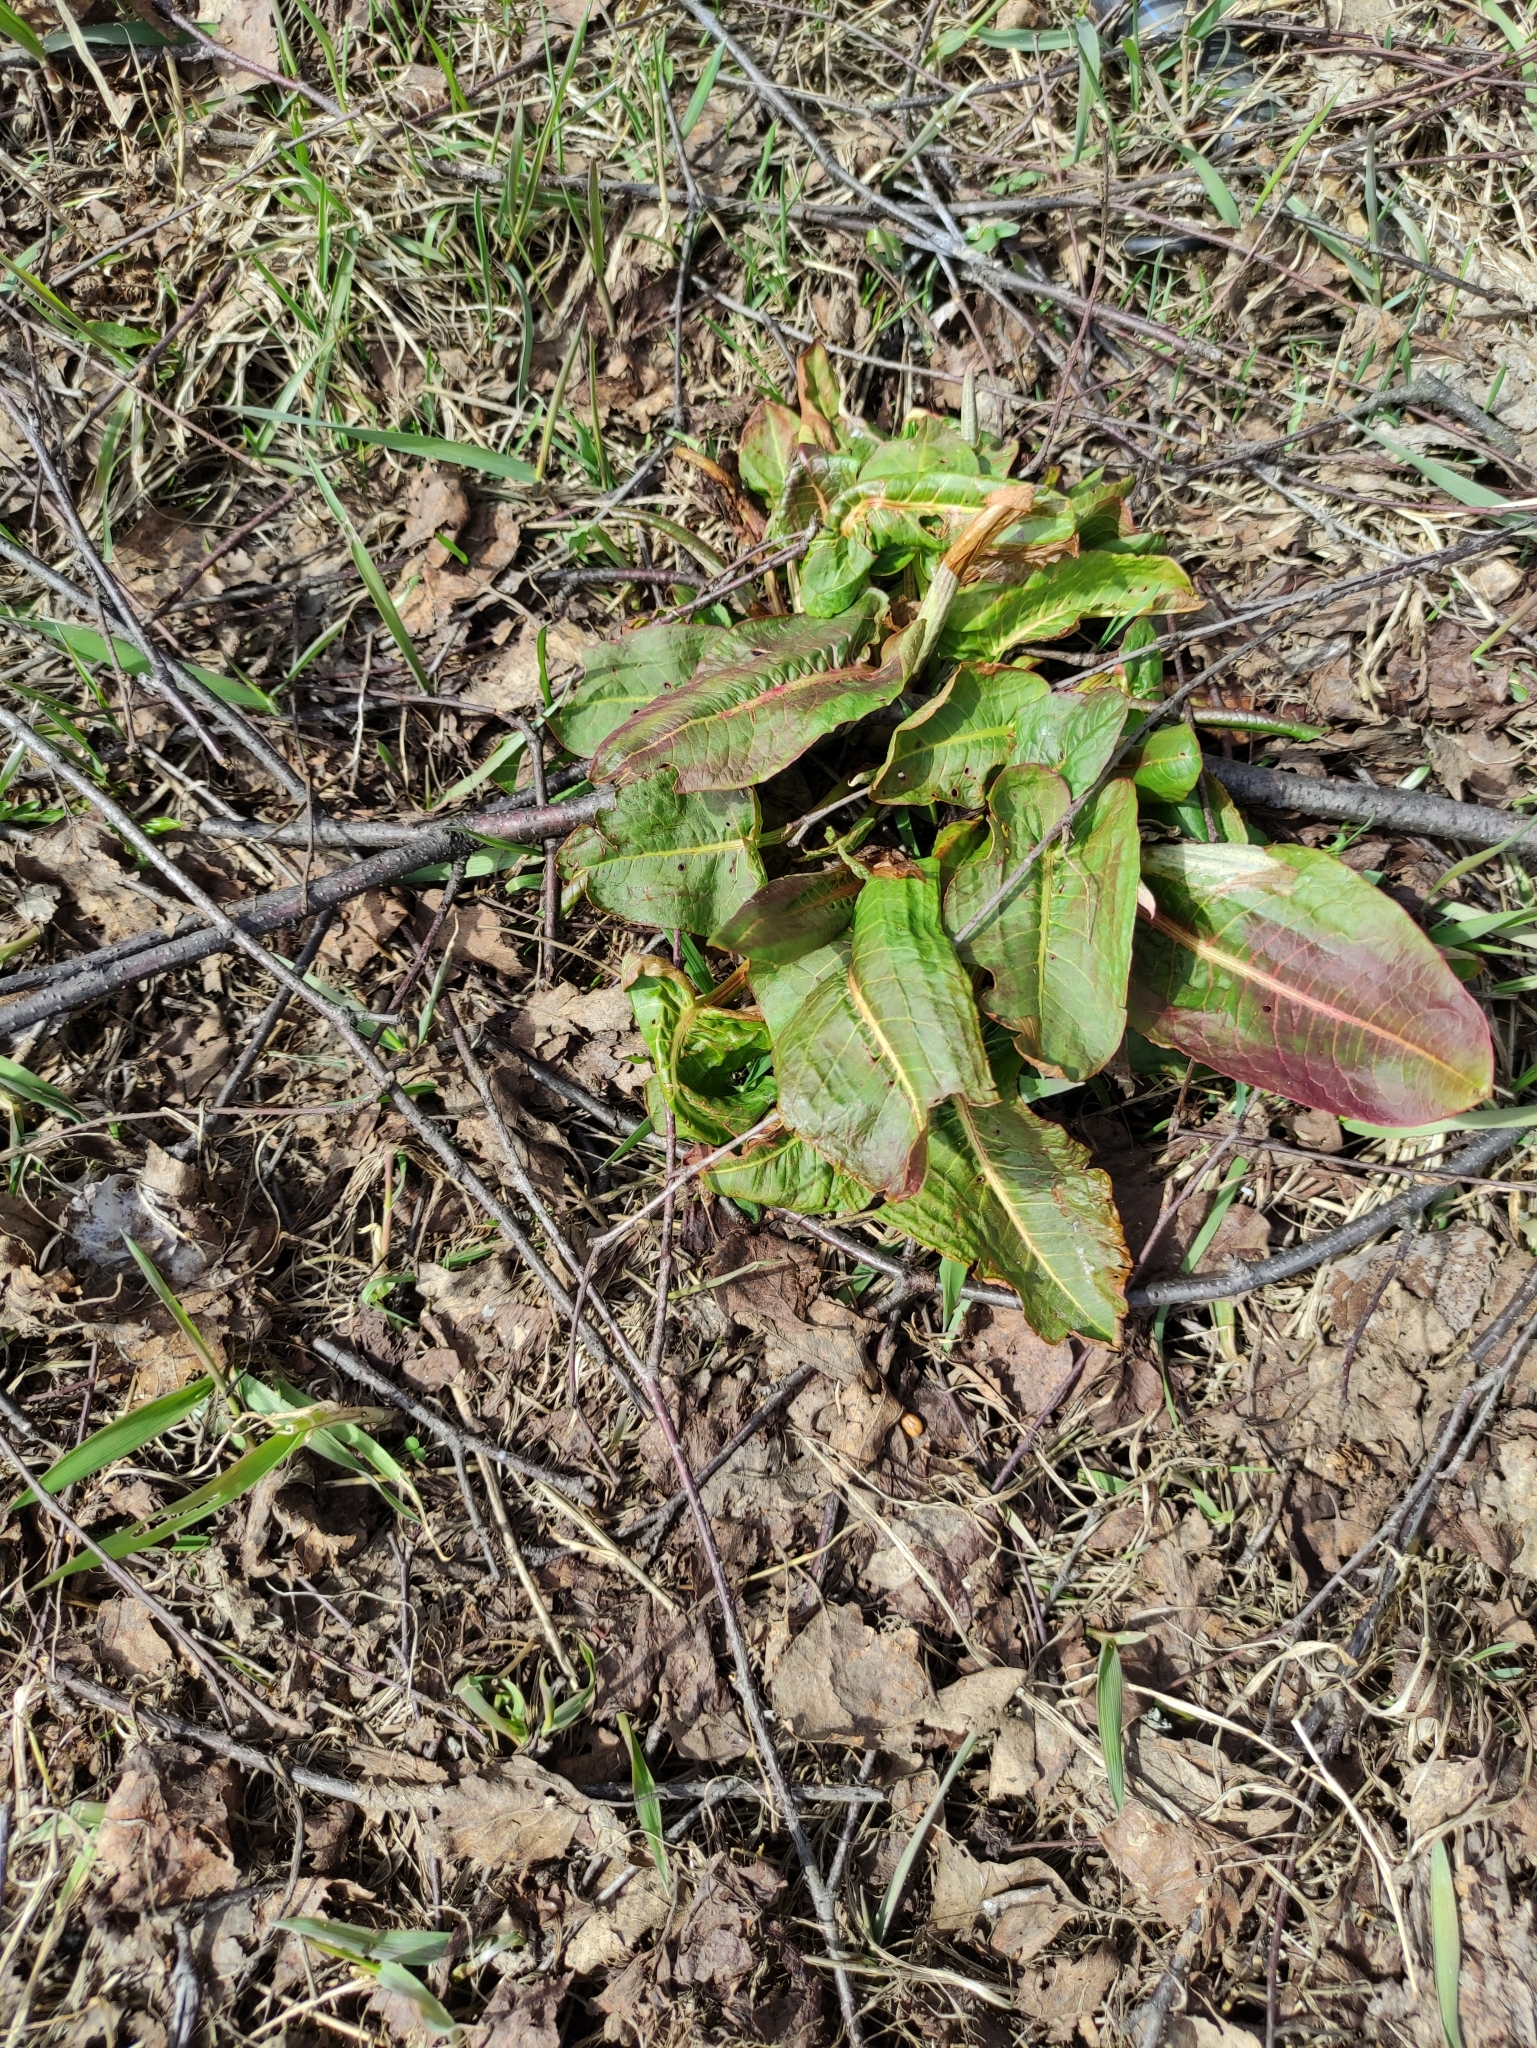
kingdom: Plantae
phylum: Tracheophyta
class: Magnoliopsida
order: Caryophyllales
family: Polygonaceae
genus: Rumex
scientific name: Rumex obtusifolius
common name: Bitter dock
